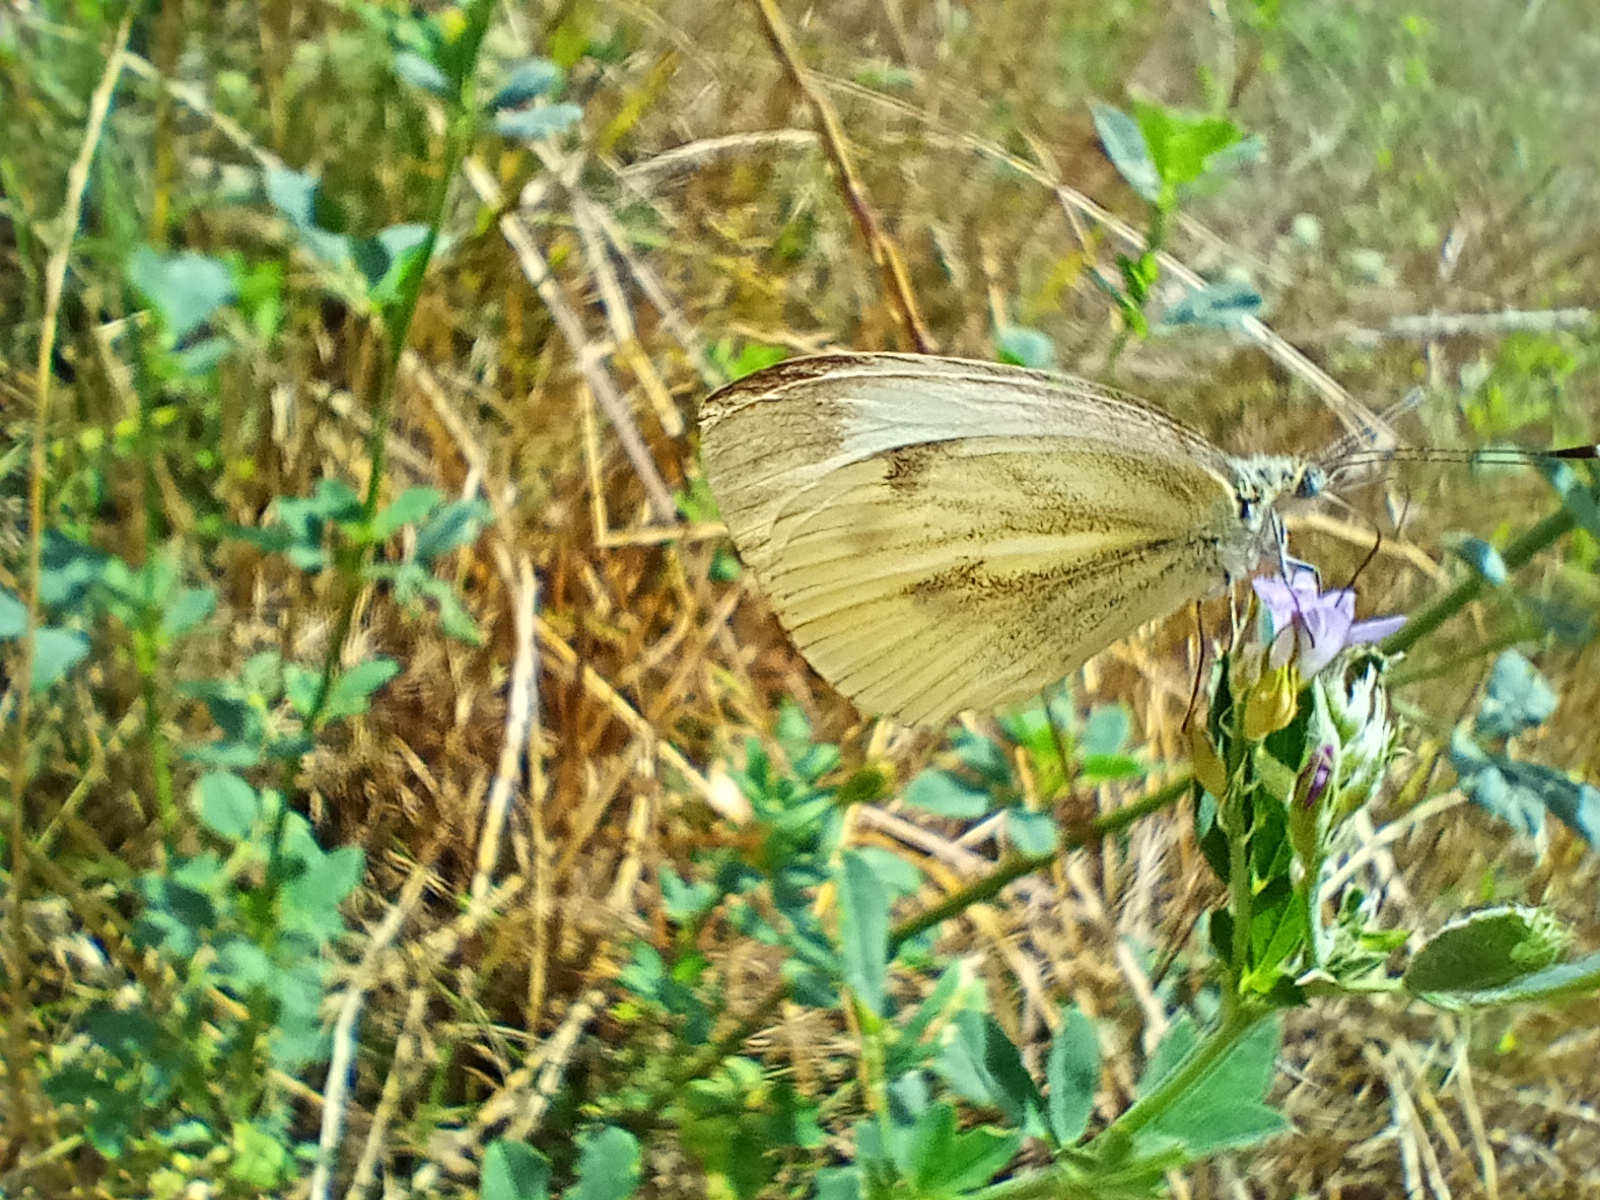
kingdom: Animalia
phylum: Arthropoda
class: Insecta
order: Lepidoptera
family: Pieridae
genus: Pieris
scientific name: Pieris napi
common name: Green-veined white
